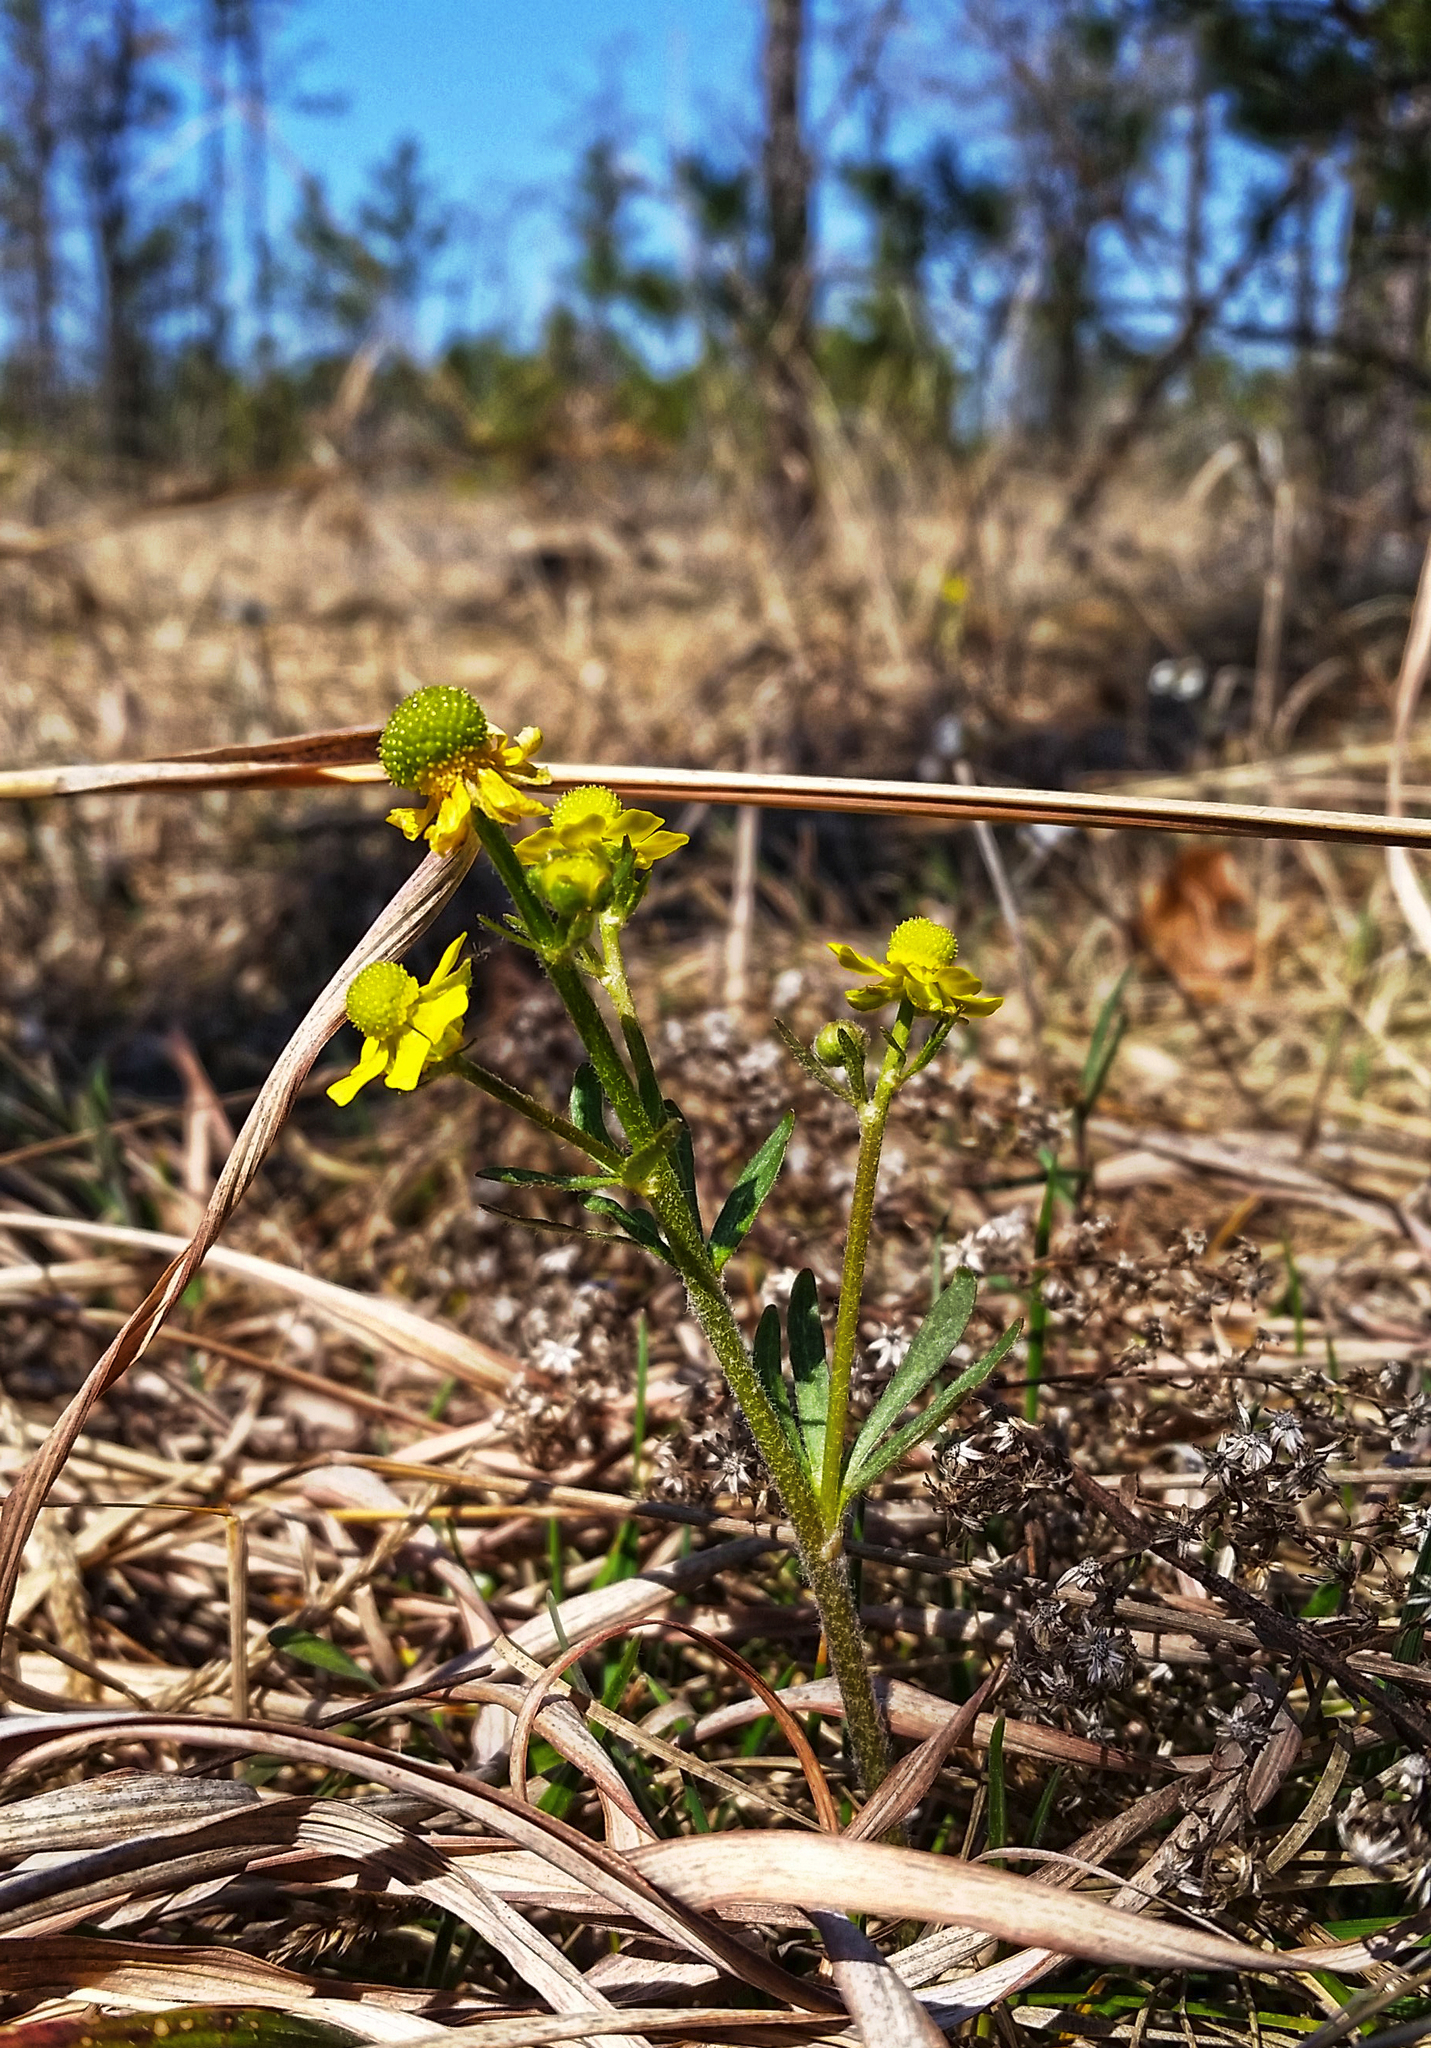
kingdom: Plantae
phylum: Tracheophyta
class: Magnoliopsida
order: Ranunculales
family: Ranunculaceae
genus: Ranunculus
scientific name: Ranunculus rhomboideus
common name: Prairie buttercup
